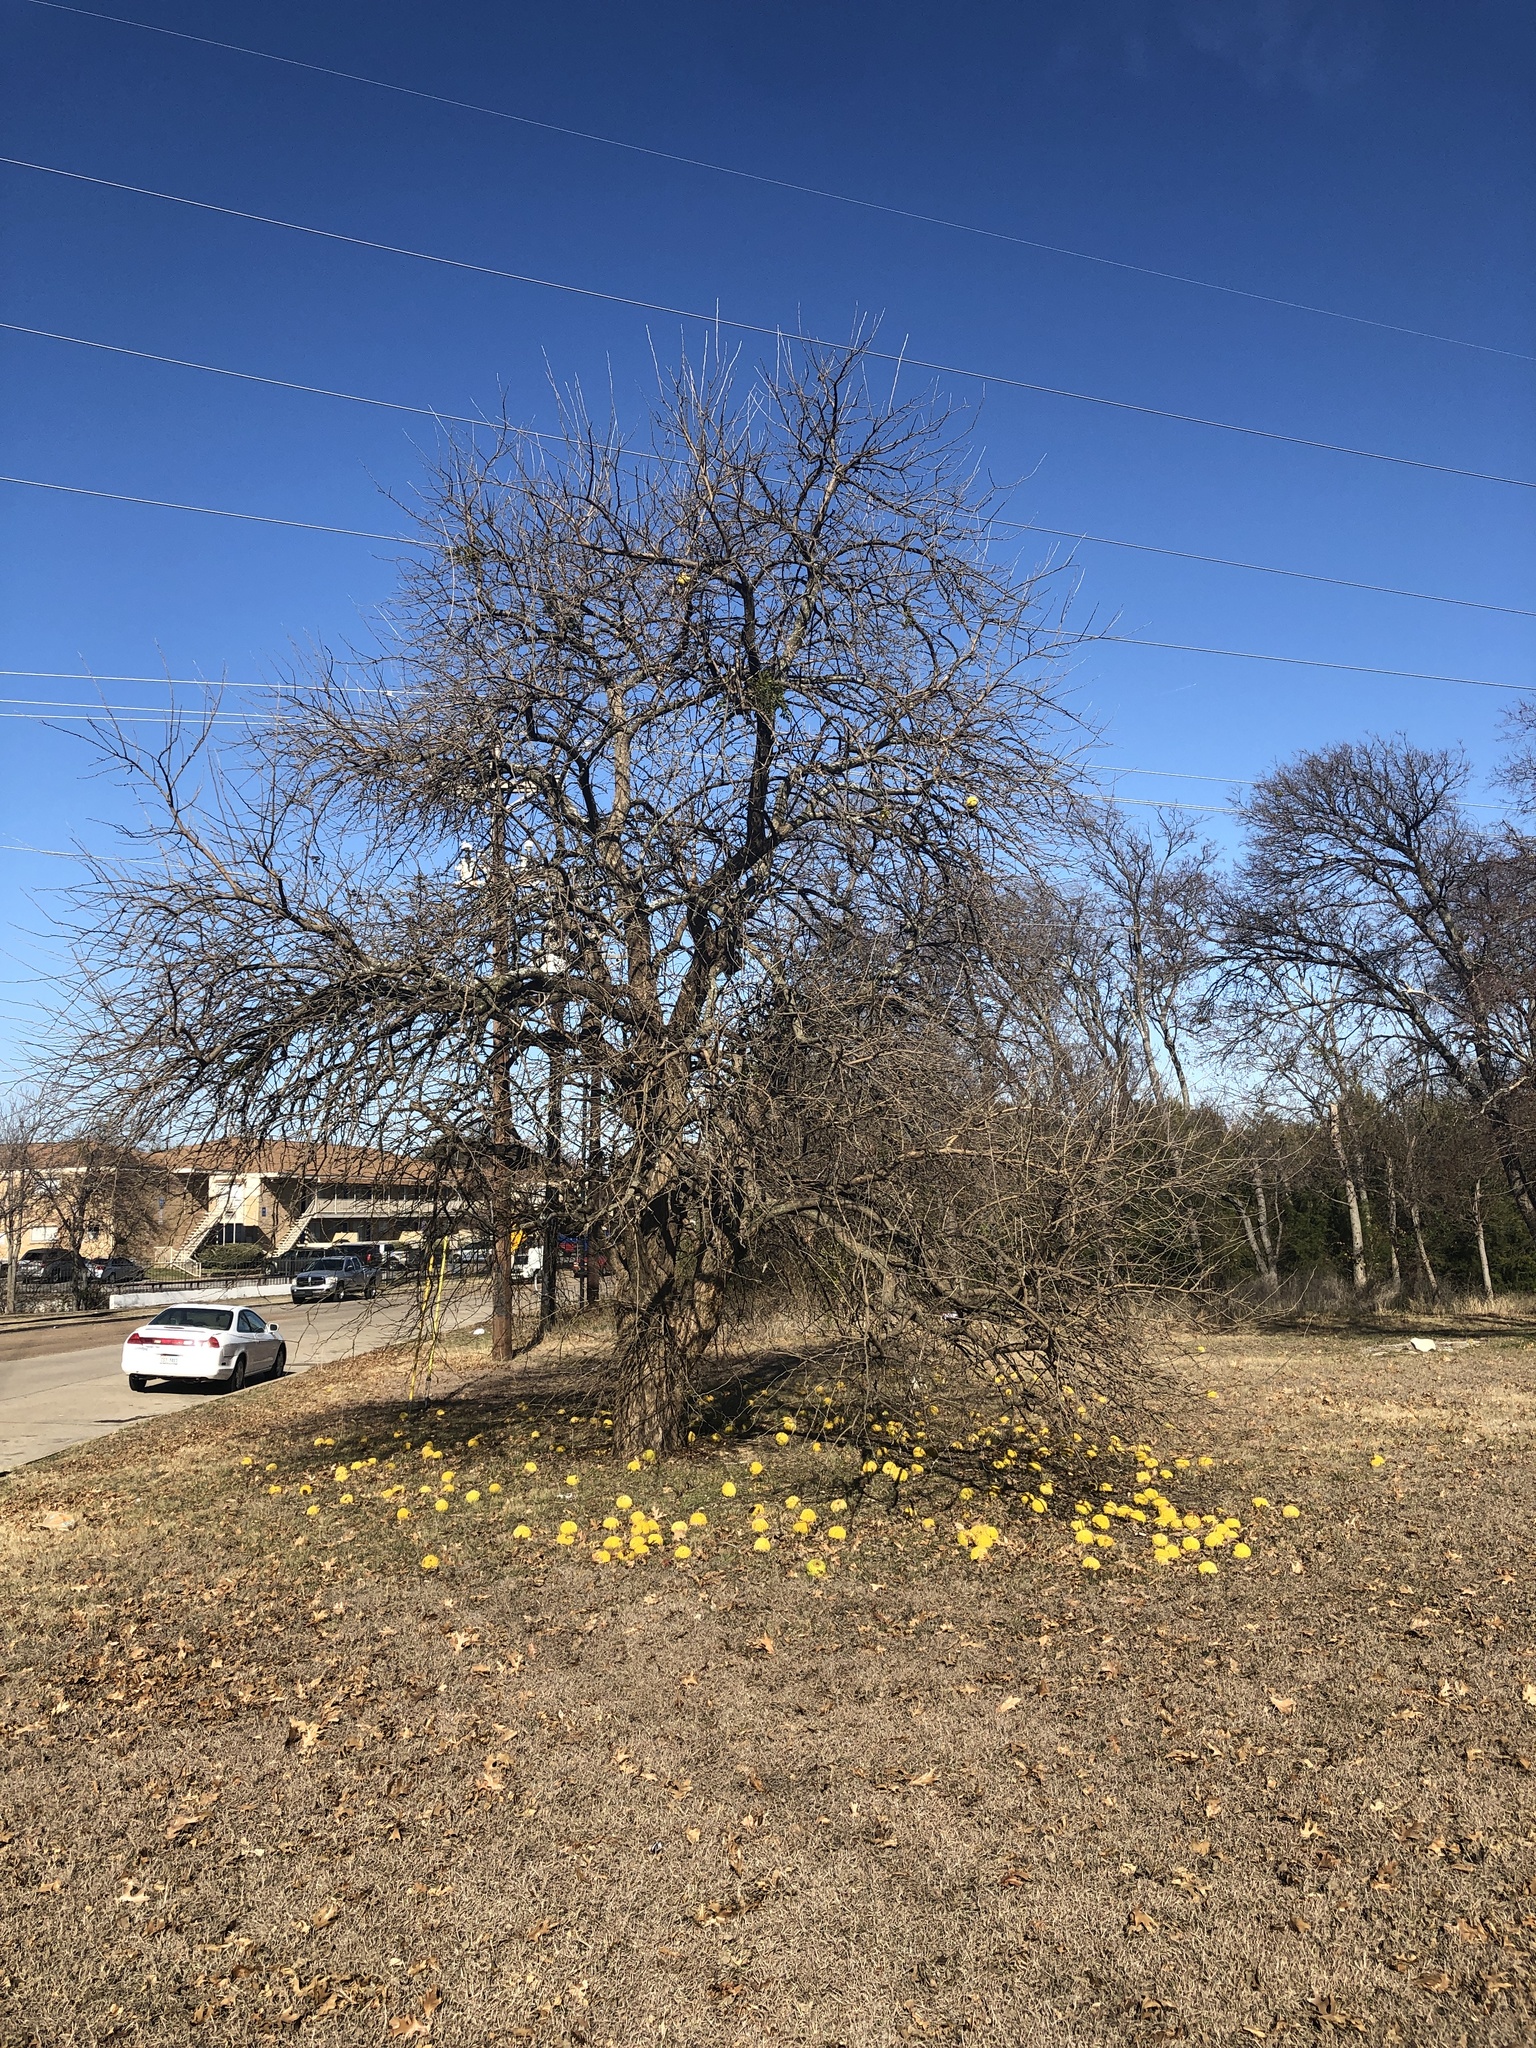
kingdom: Plantae
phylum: Tracheophyta
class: Magnoliopsida
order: Rosales
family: Moraceae
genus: Maclura
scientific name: Maclura pomifera
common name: Osage-orange
